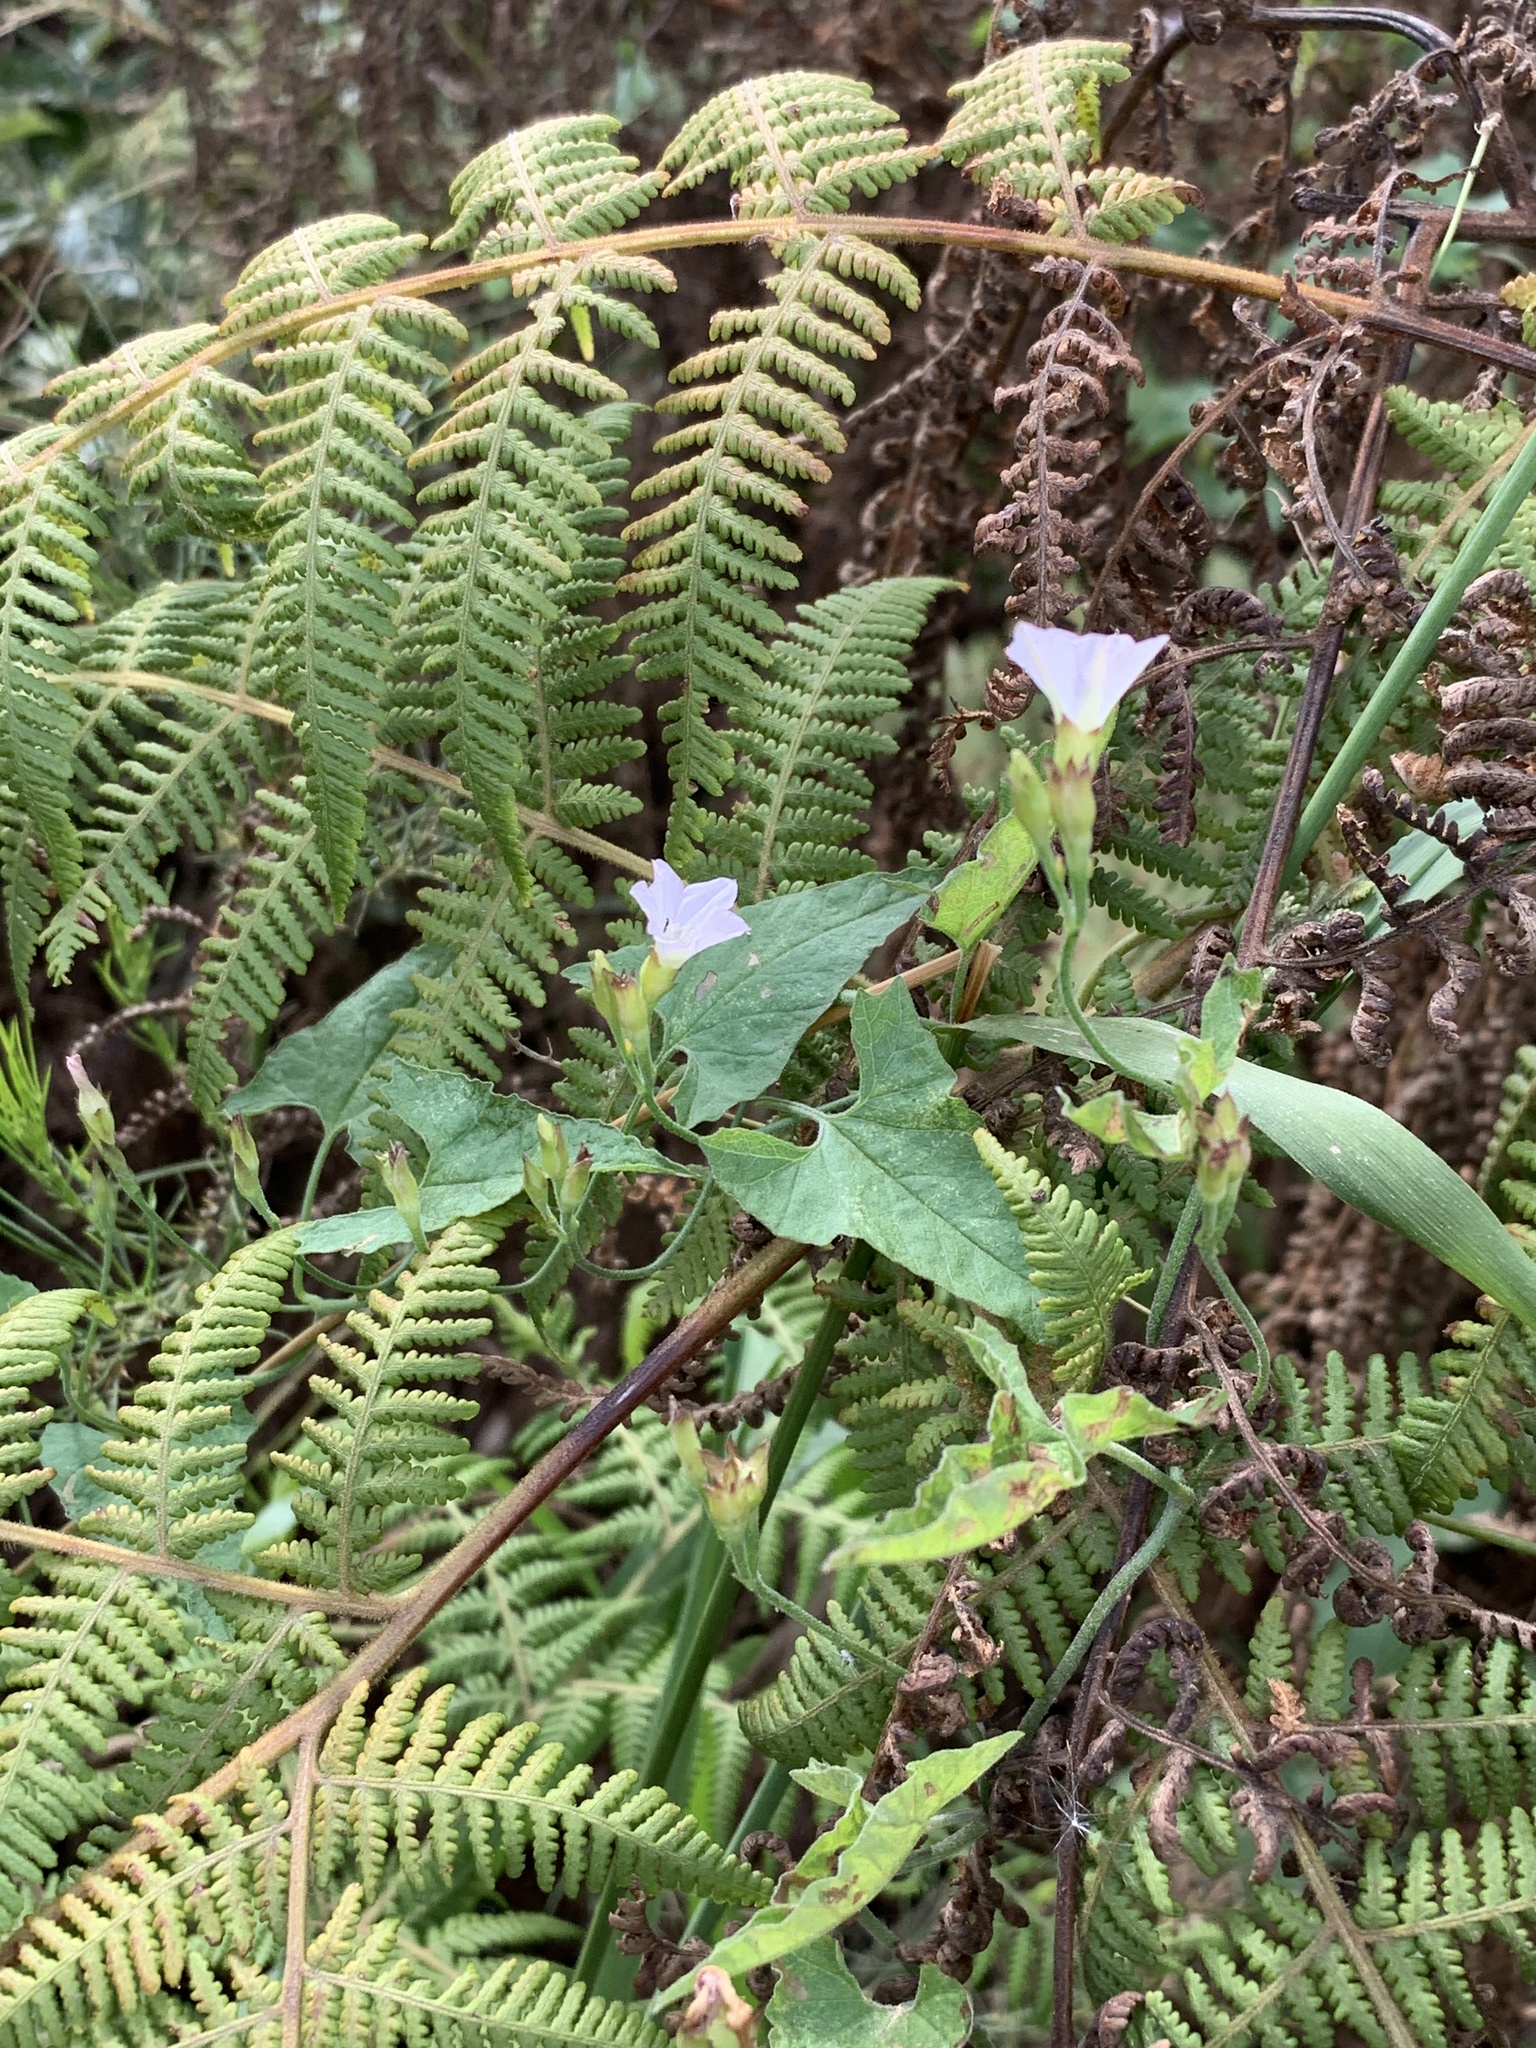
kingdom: Plantae
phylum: Tracheophyta
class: Magnoliopsida
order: Solanales
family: Convolvulaceae
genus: Convolvulus
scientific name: Convolvulus farinosus
